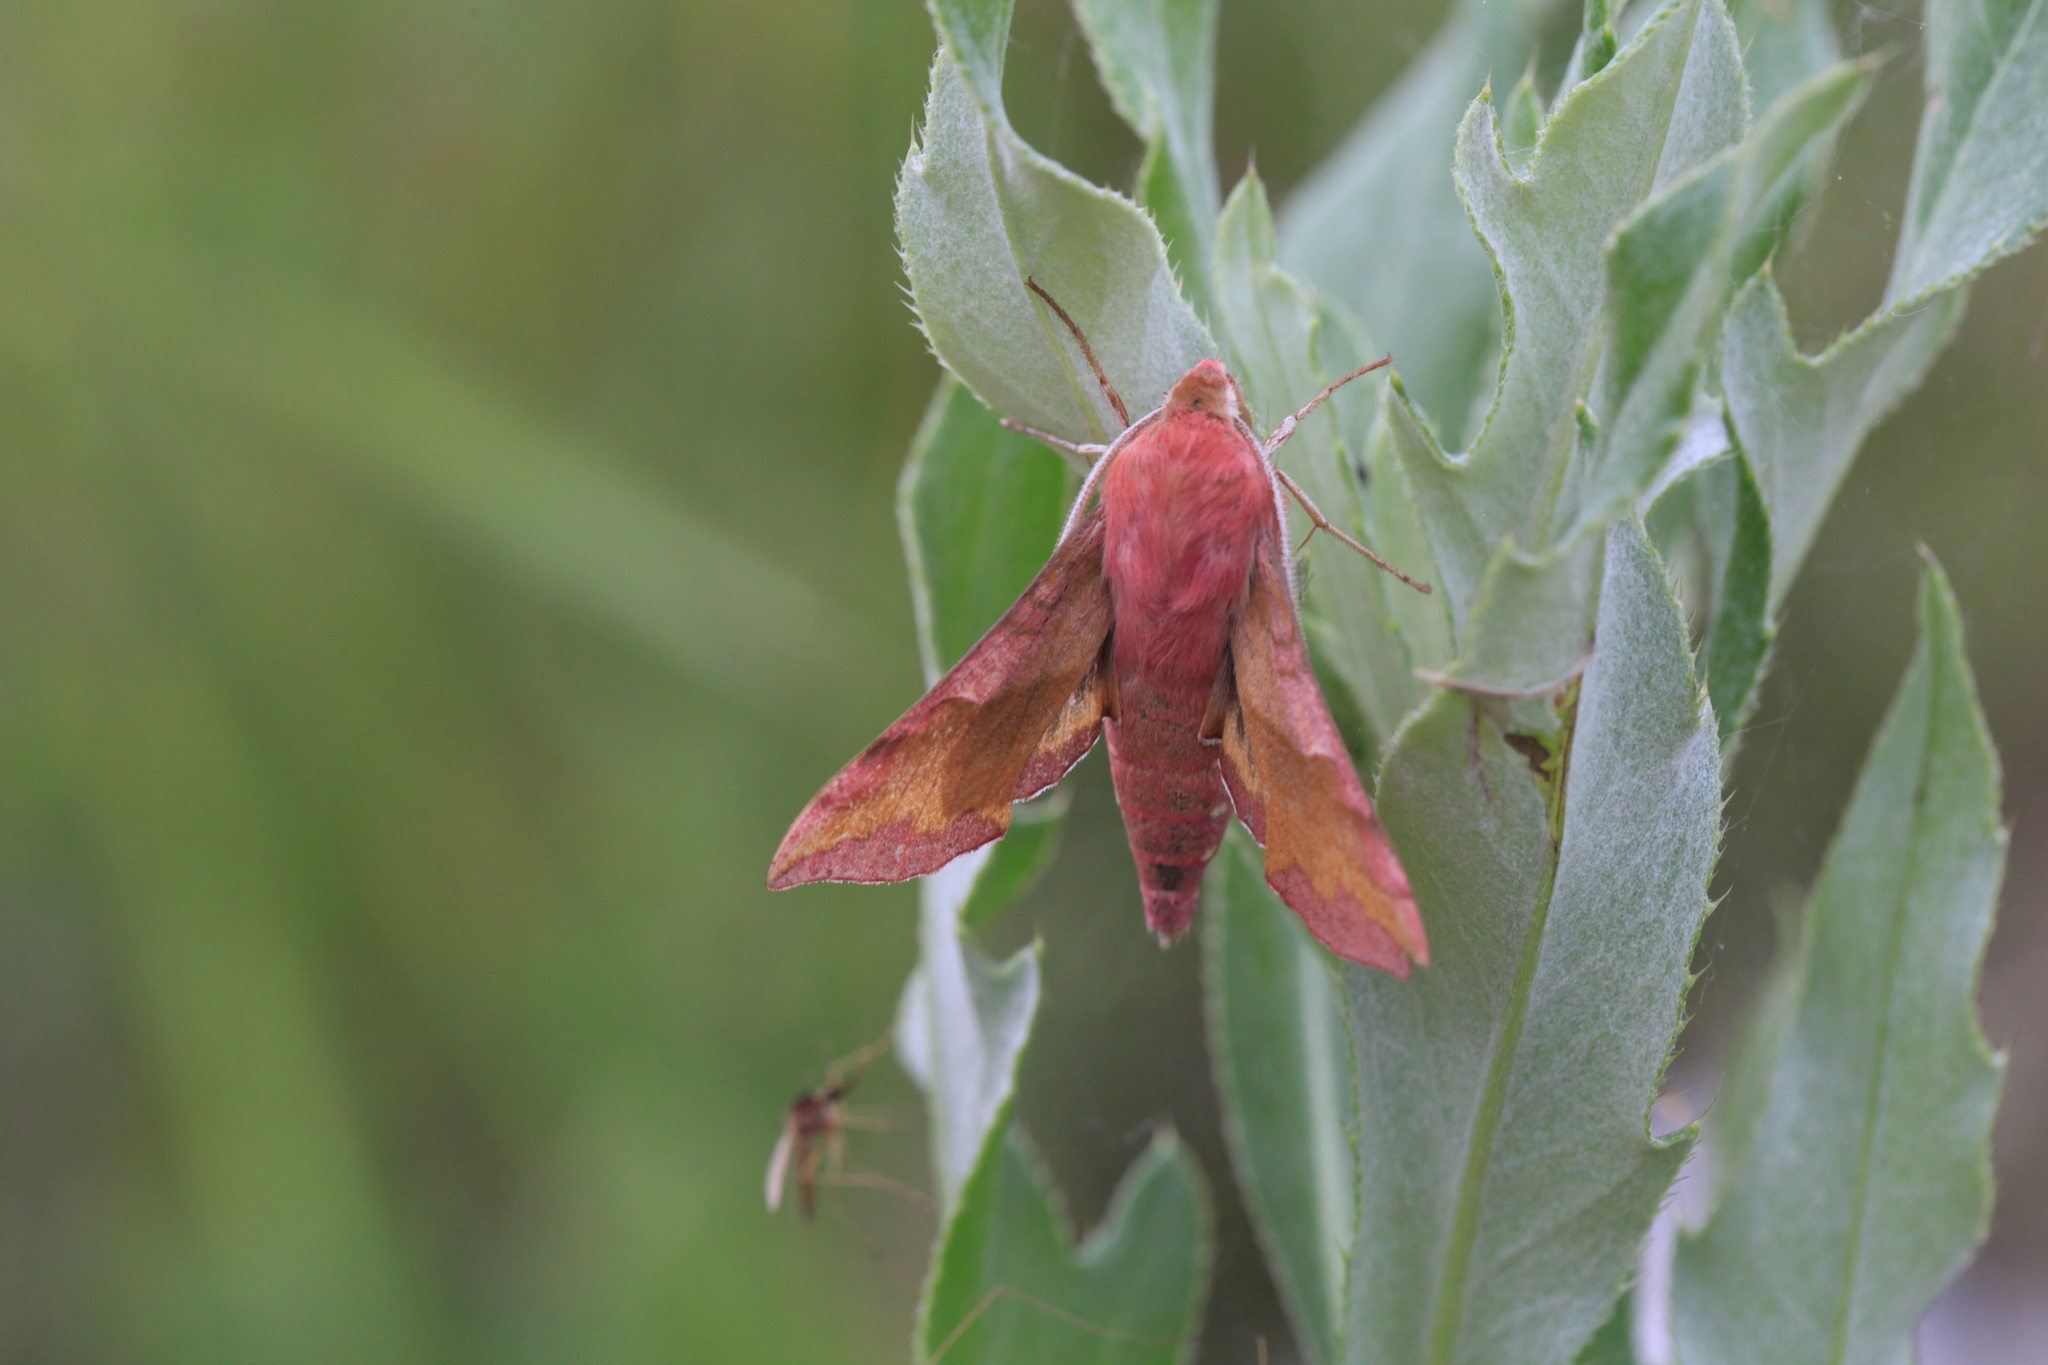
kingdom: Animalia
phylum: Arthropoda
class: Insecta
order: Lepidoptera
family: Sphingidae
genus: Deilephila
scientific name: Deilephila porcellus
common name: Small elephant hawk-moth
